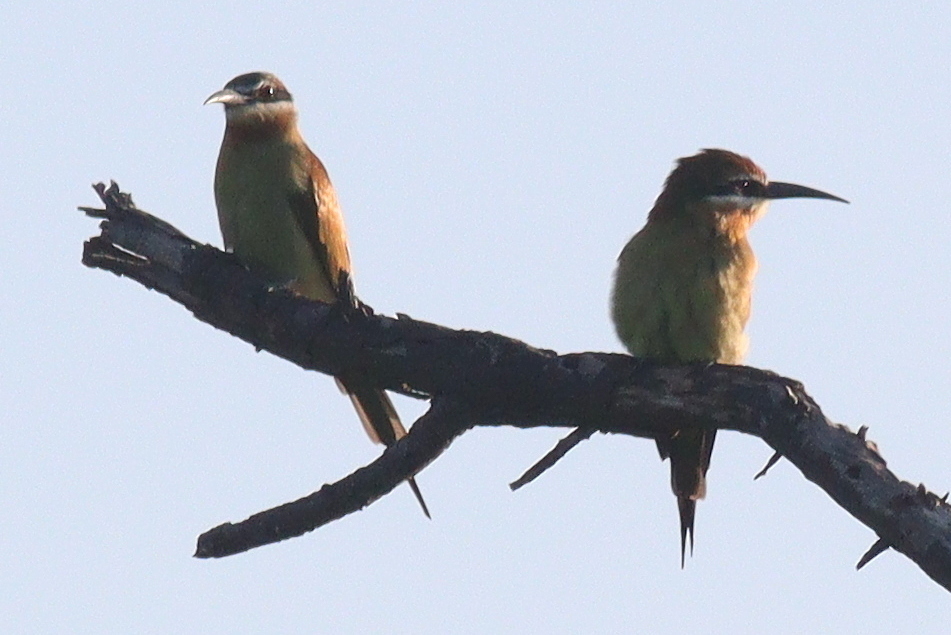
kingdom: Animalia
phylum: Chordata
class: Aves
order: Coraciiformes
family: Meropidae
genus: Merops
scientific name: Merops superciliosus
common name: Olive bee-eater
